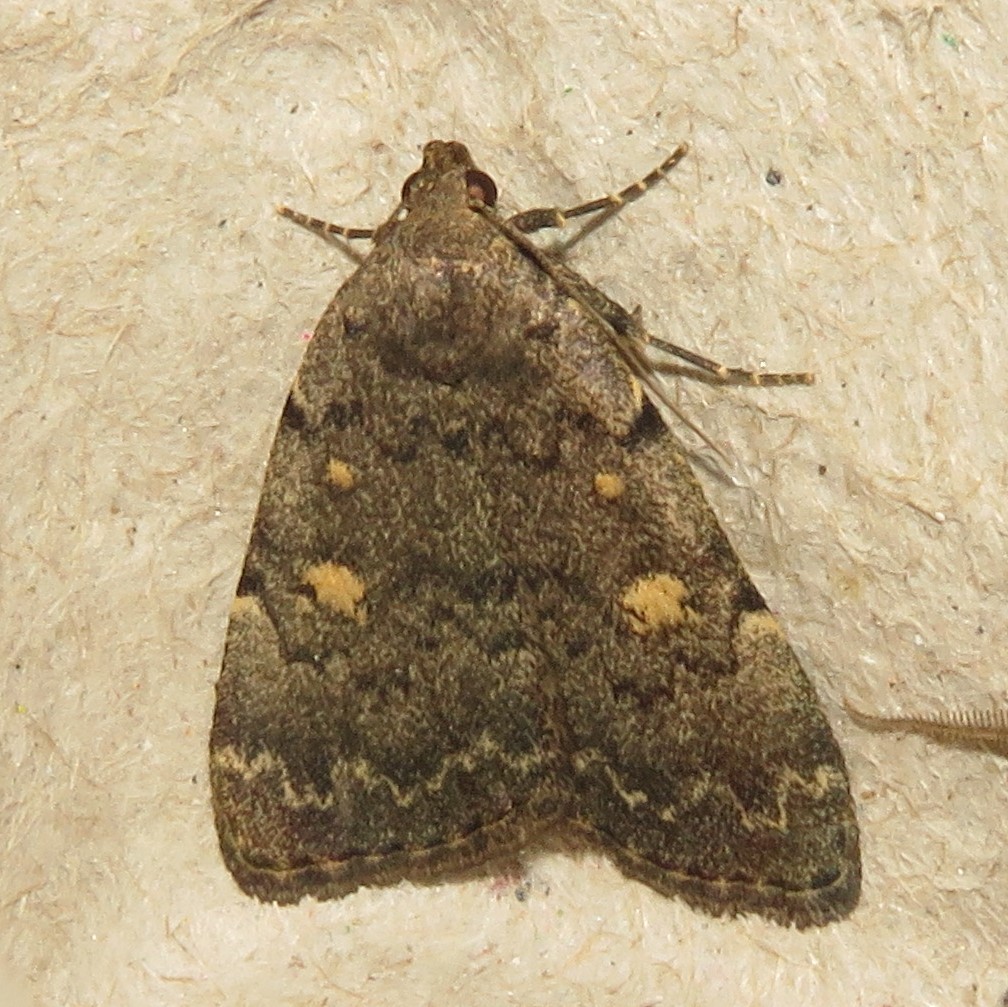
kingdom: Animalia
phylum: Arthropoda
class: Insecta
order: Lepidoptera
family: Erebidae
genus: Idia
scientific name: Idia aemula
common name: Common idia moth
